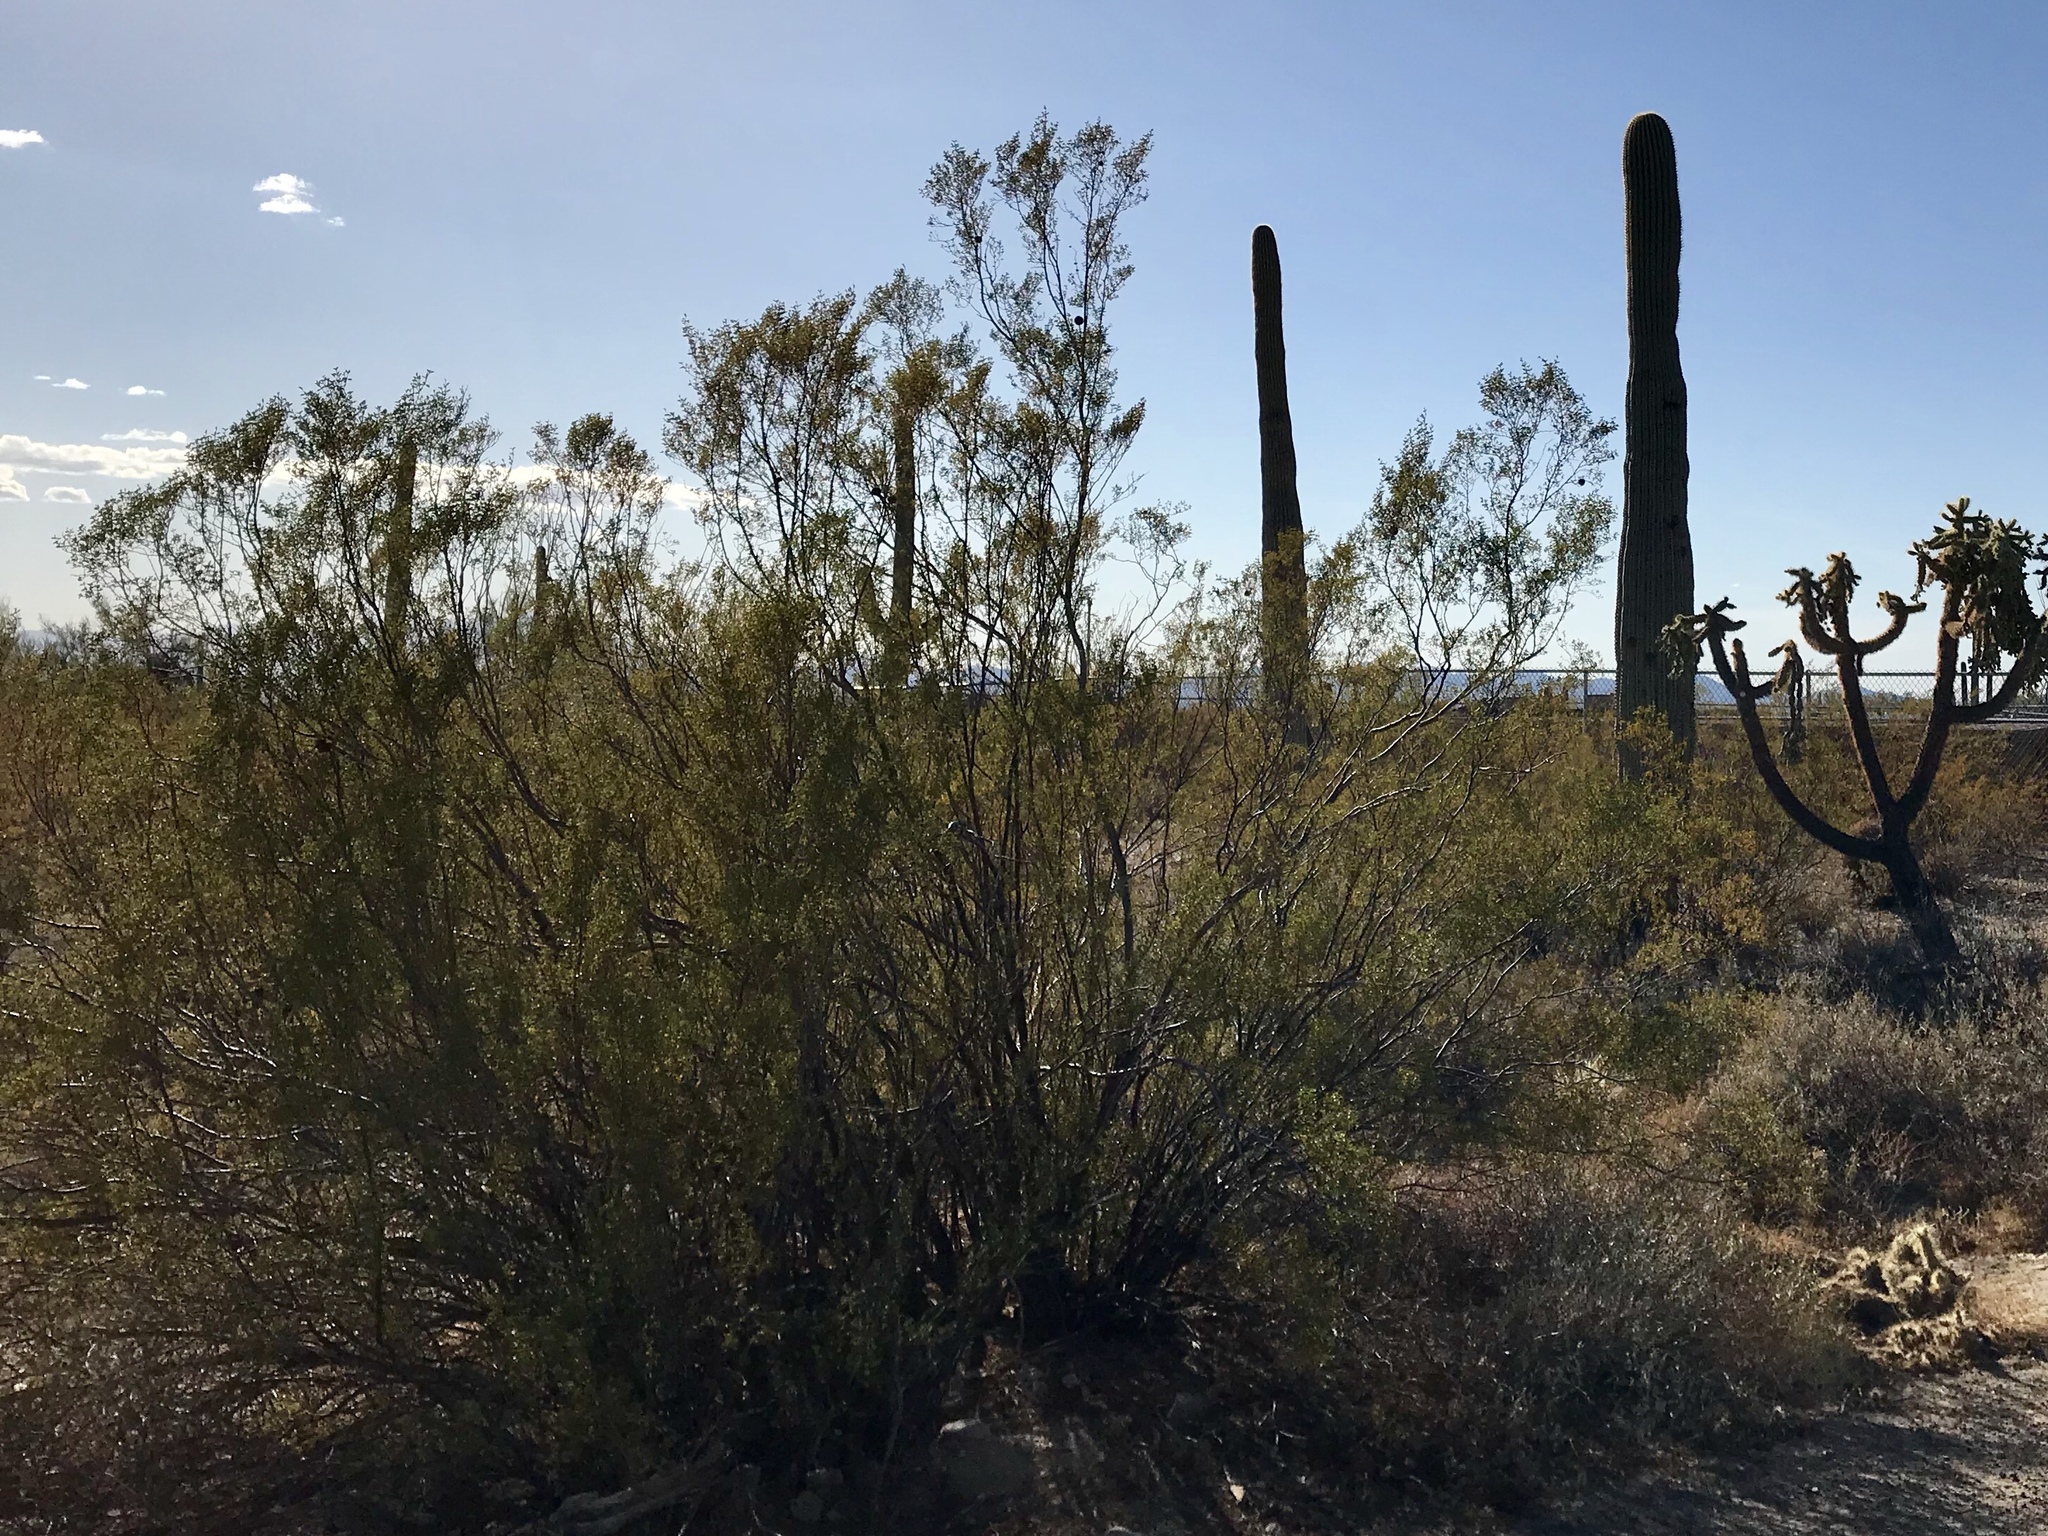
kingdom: Plantae
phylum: Tracheophyta
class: Magnoliopsida
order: Zygophyllales
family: Zygophyllaceae
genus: Larrea
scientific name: Larrea tridentata
